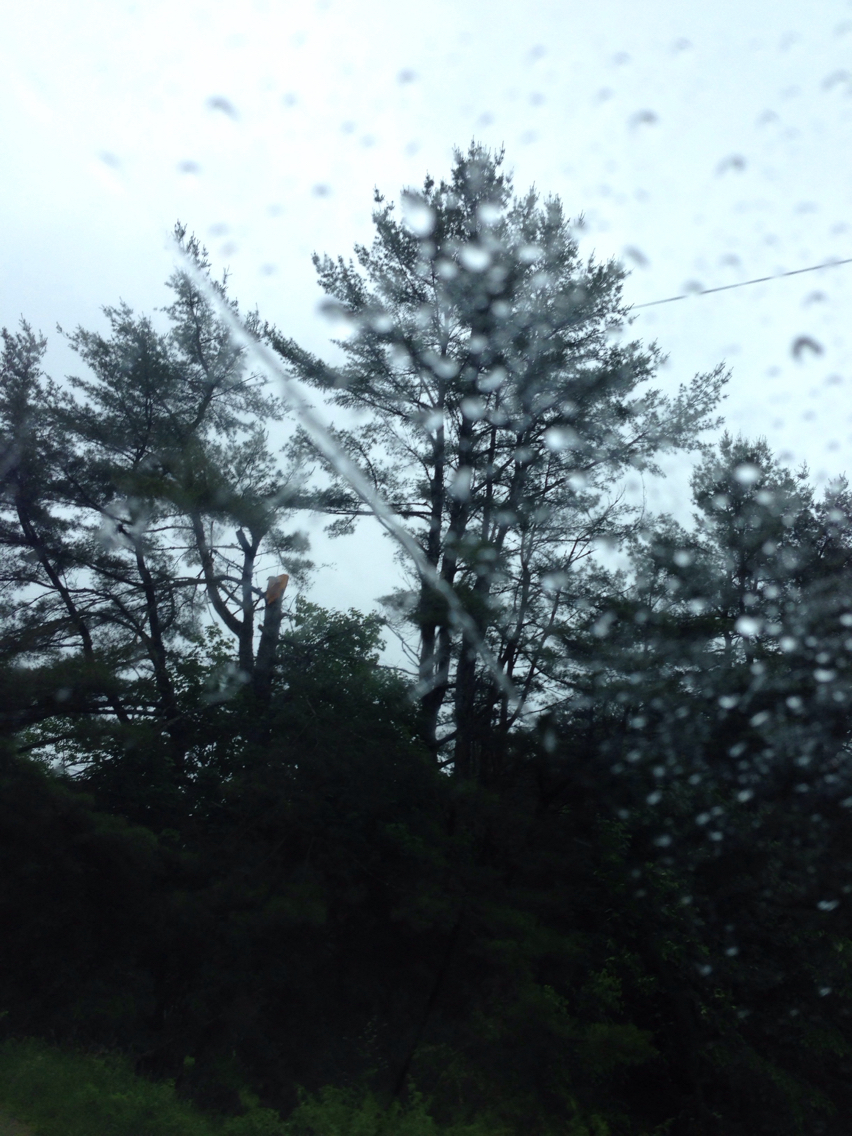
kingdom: Plantae
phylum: Tracheophyta
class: Pinopsida
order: Pinales
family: Pinaceae
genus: Pinus
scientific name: Pinus strobus
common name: Weymouth pine
